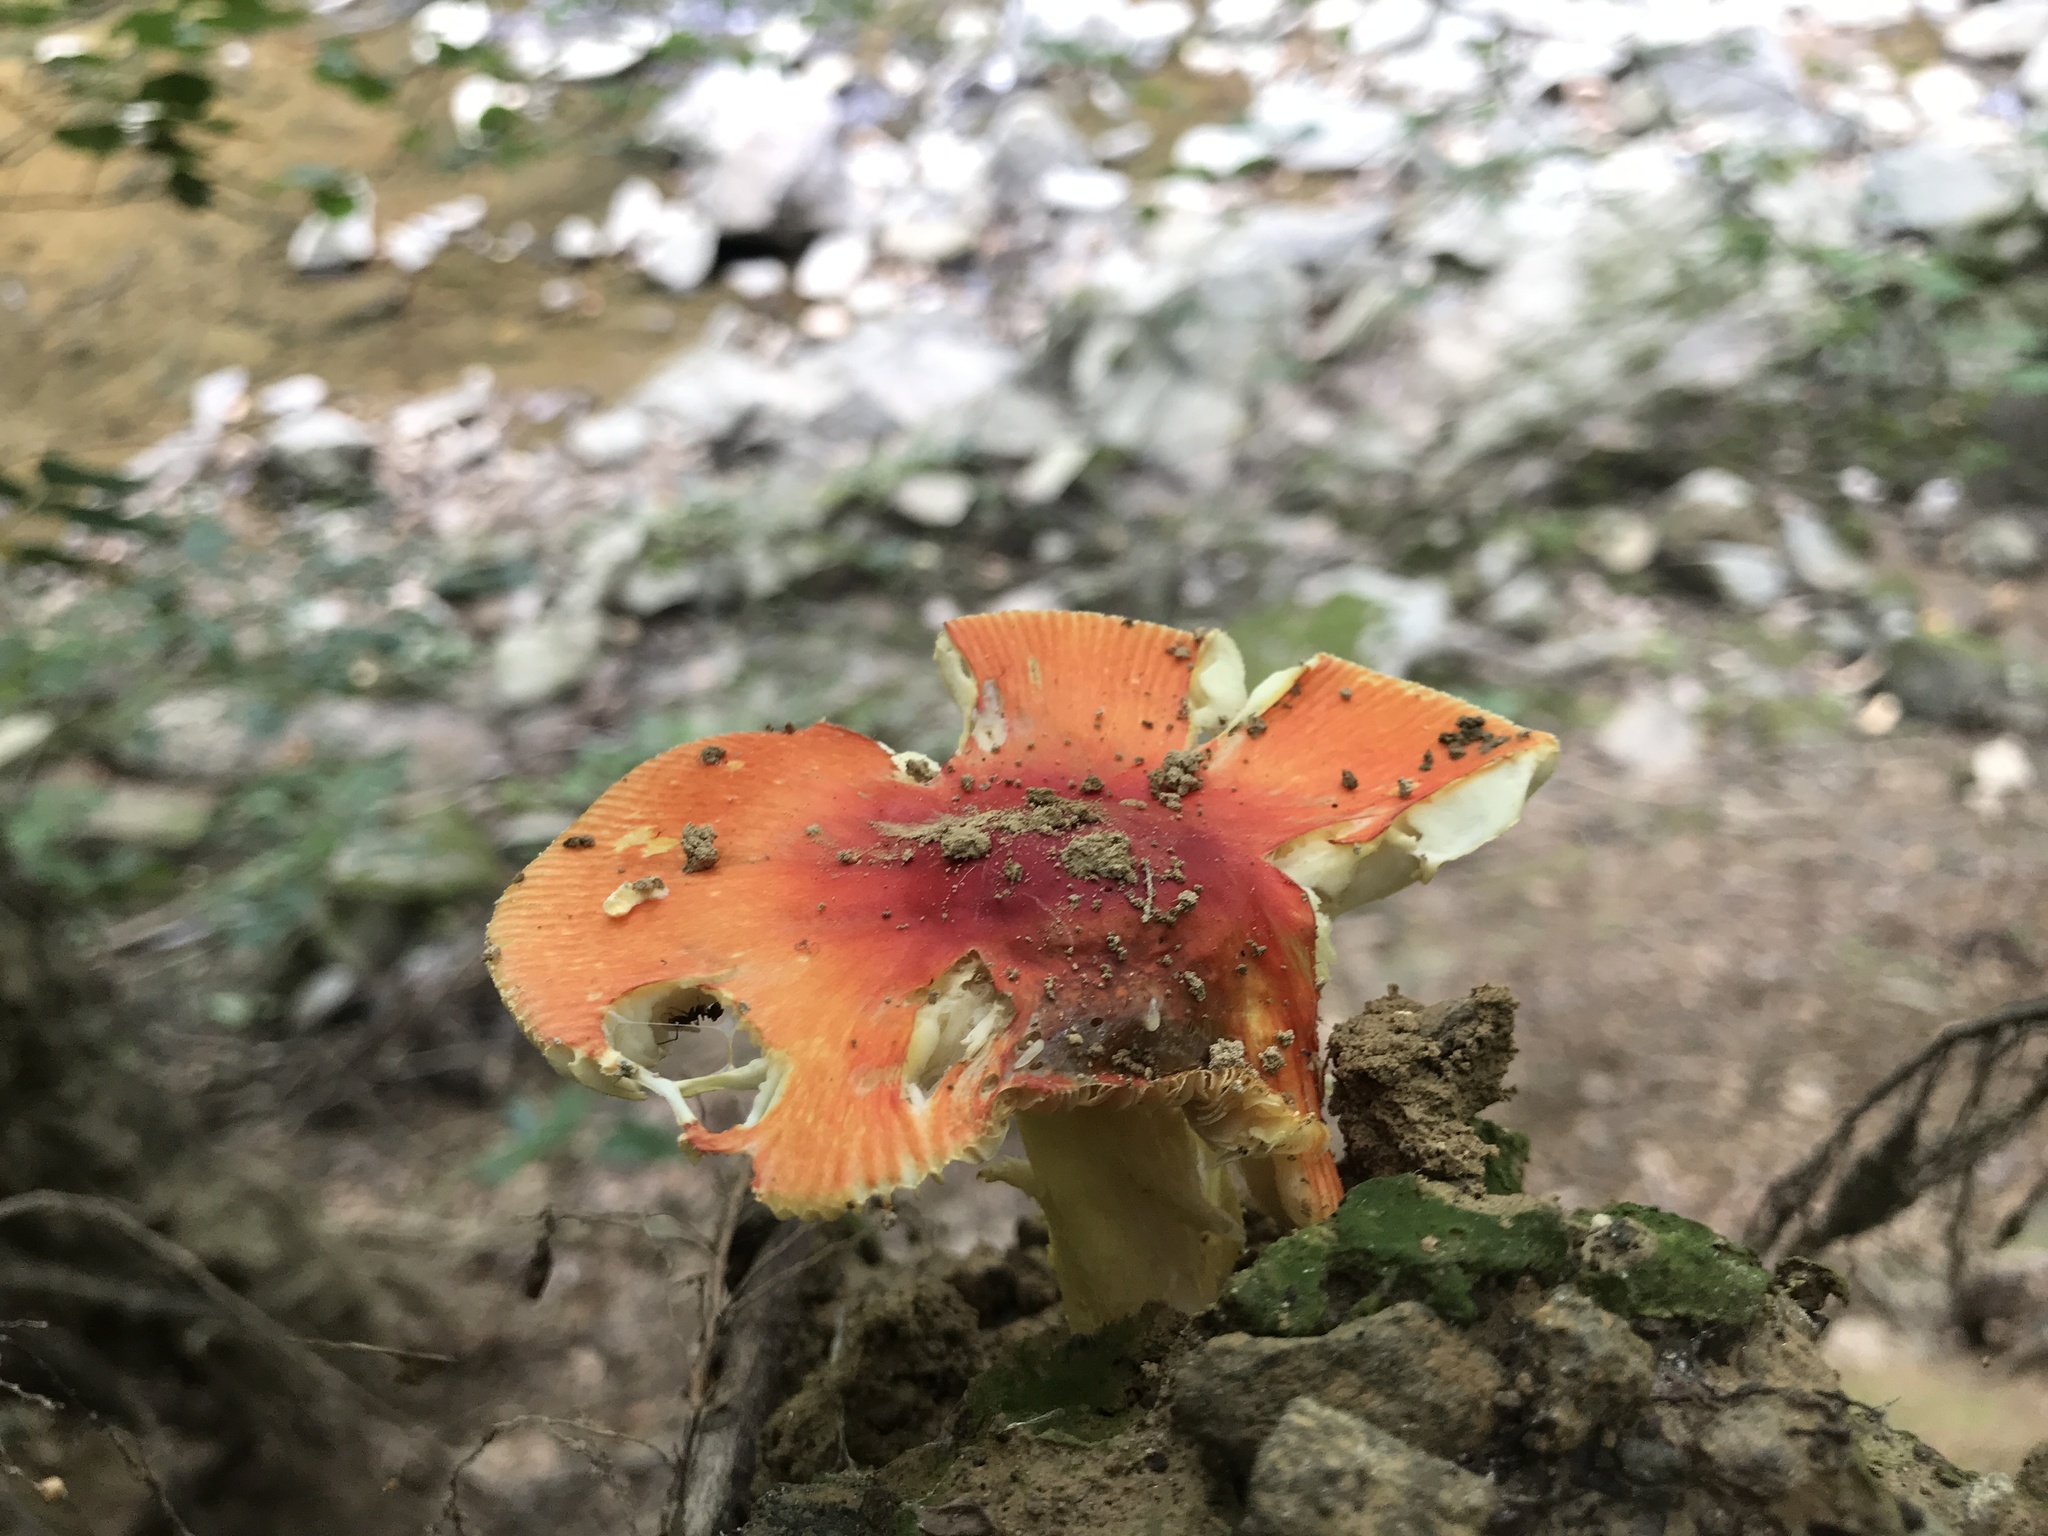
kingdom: Fungi
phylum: Basidiomycota
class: Agaricomycetes
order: Agaricales
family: Amanitaceae
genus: Amanita
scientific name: Amanita parcivolvata
